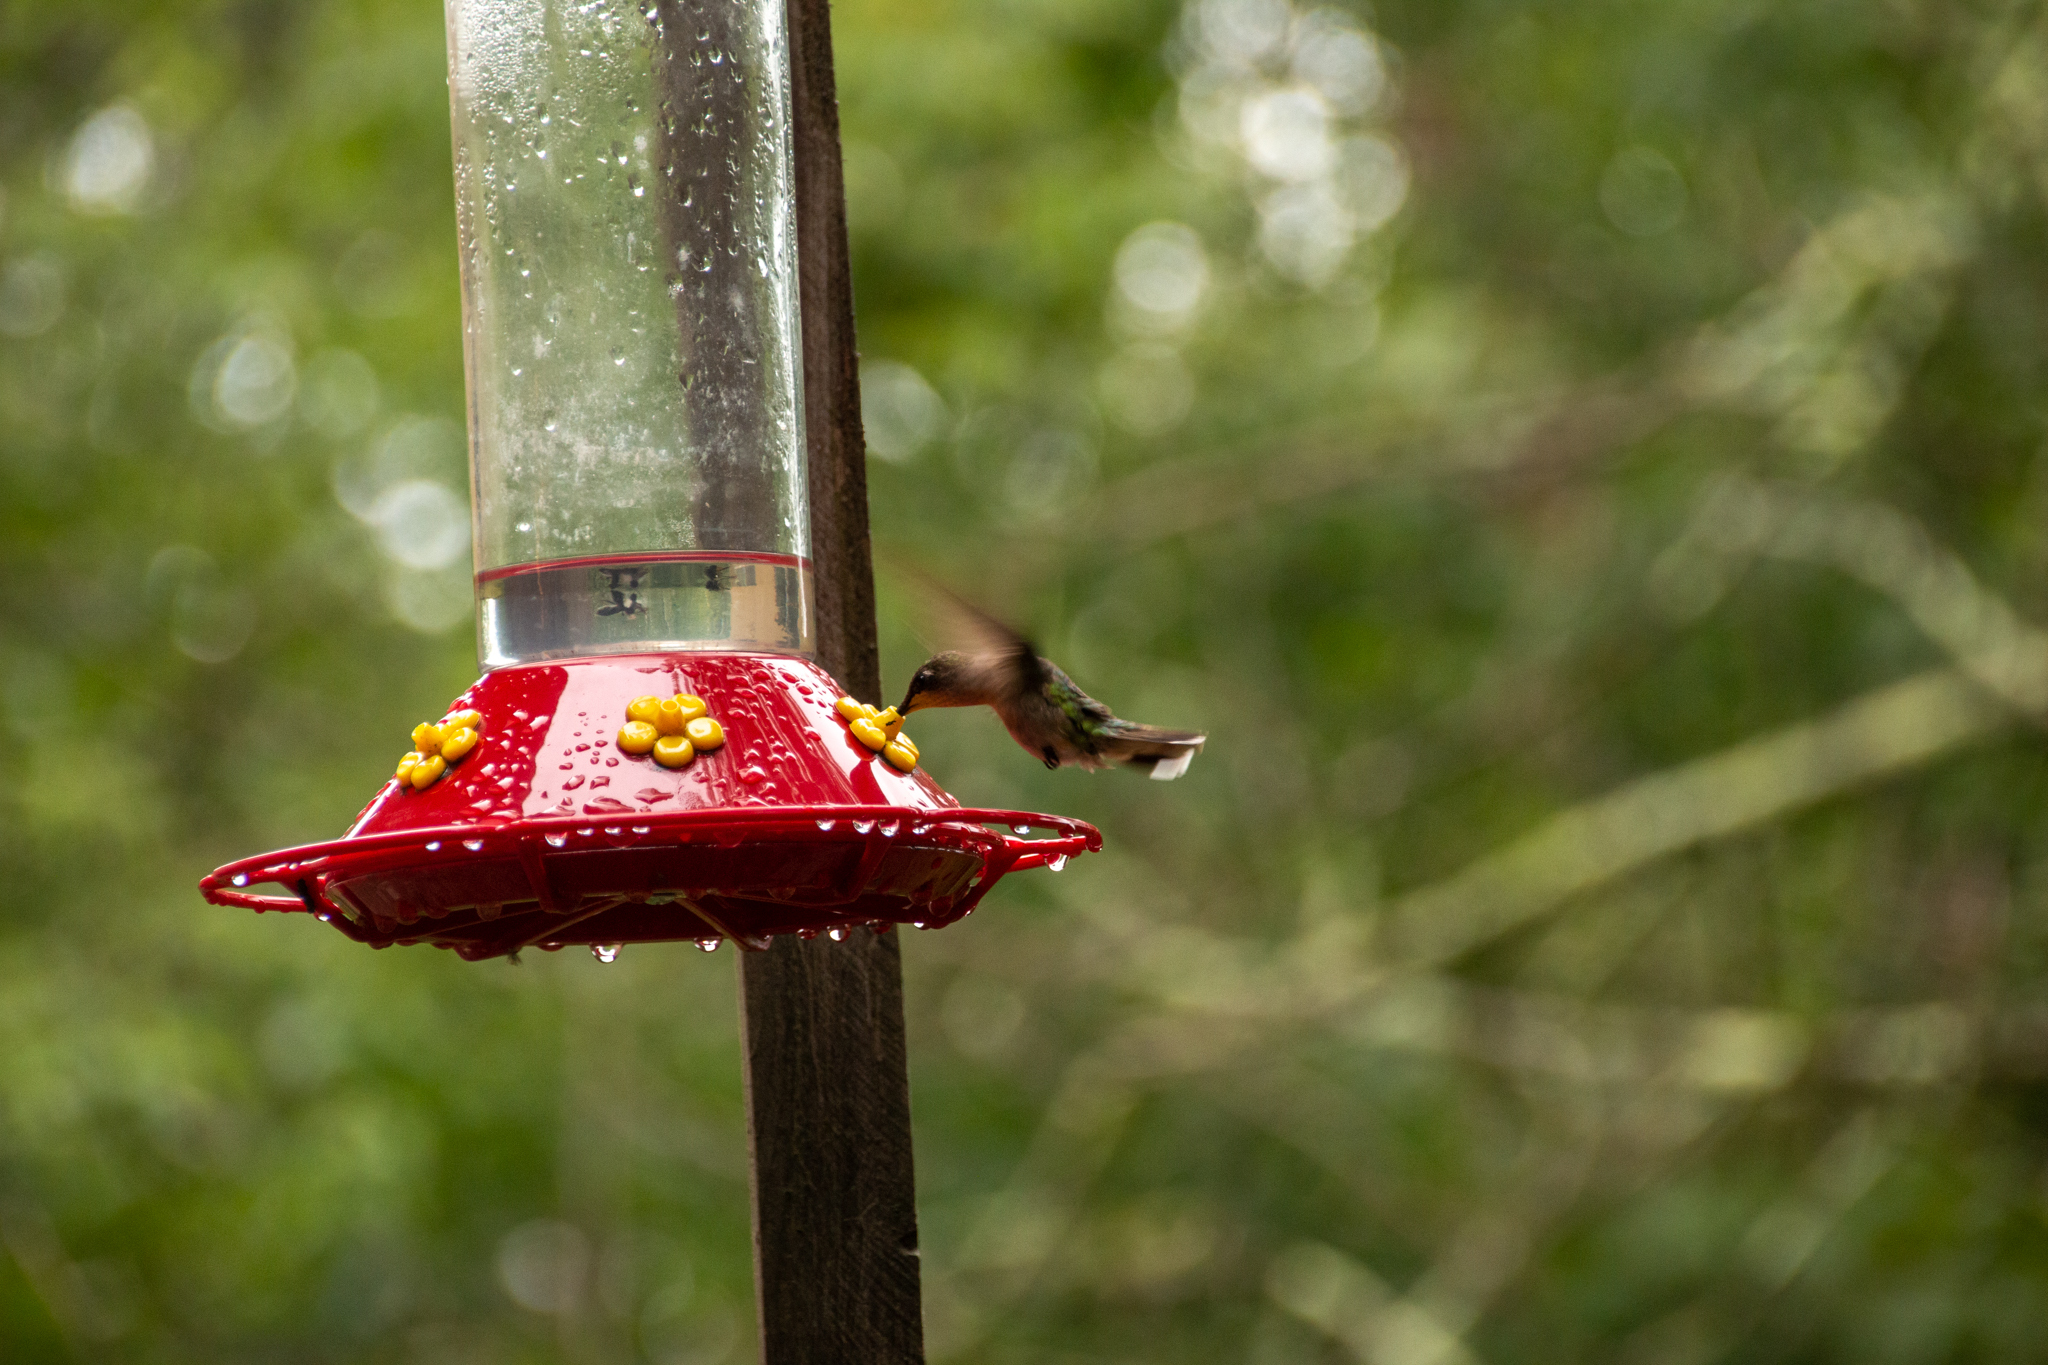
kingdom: Animalia
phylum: Chordata
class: Aves
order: Apodiformes
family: Trochilidae
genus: Archilochus
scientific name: Archilochus colubris
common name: Ruby-throated hummingbird
